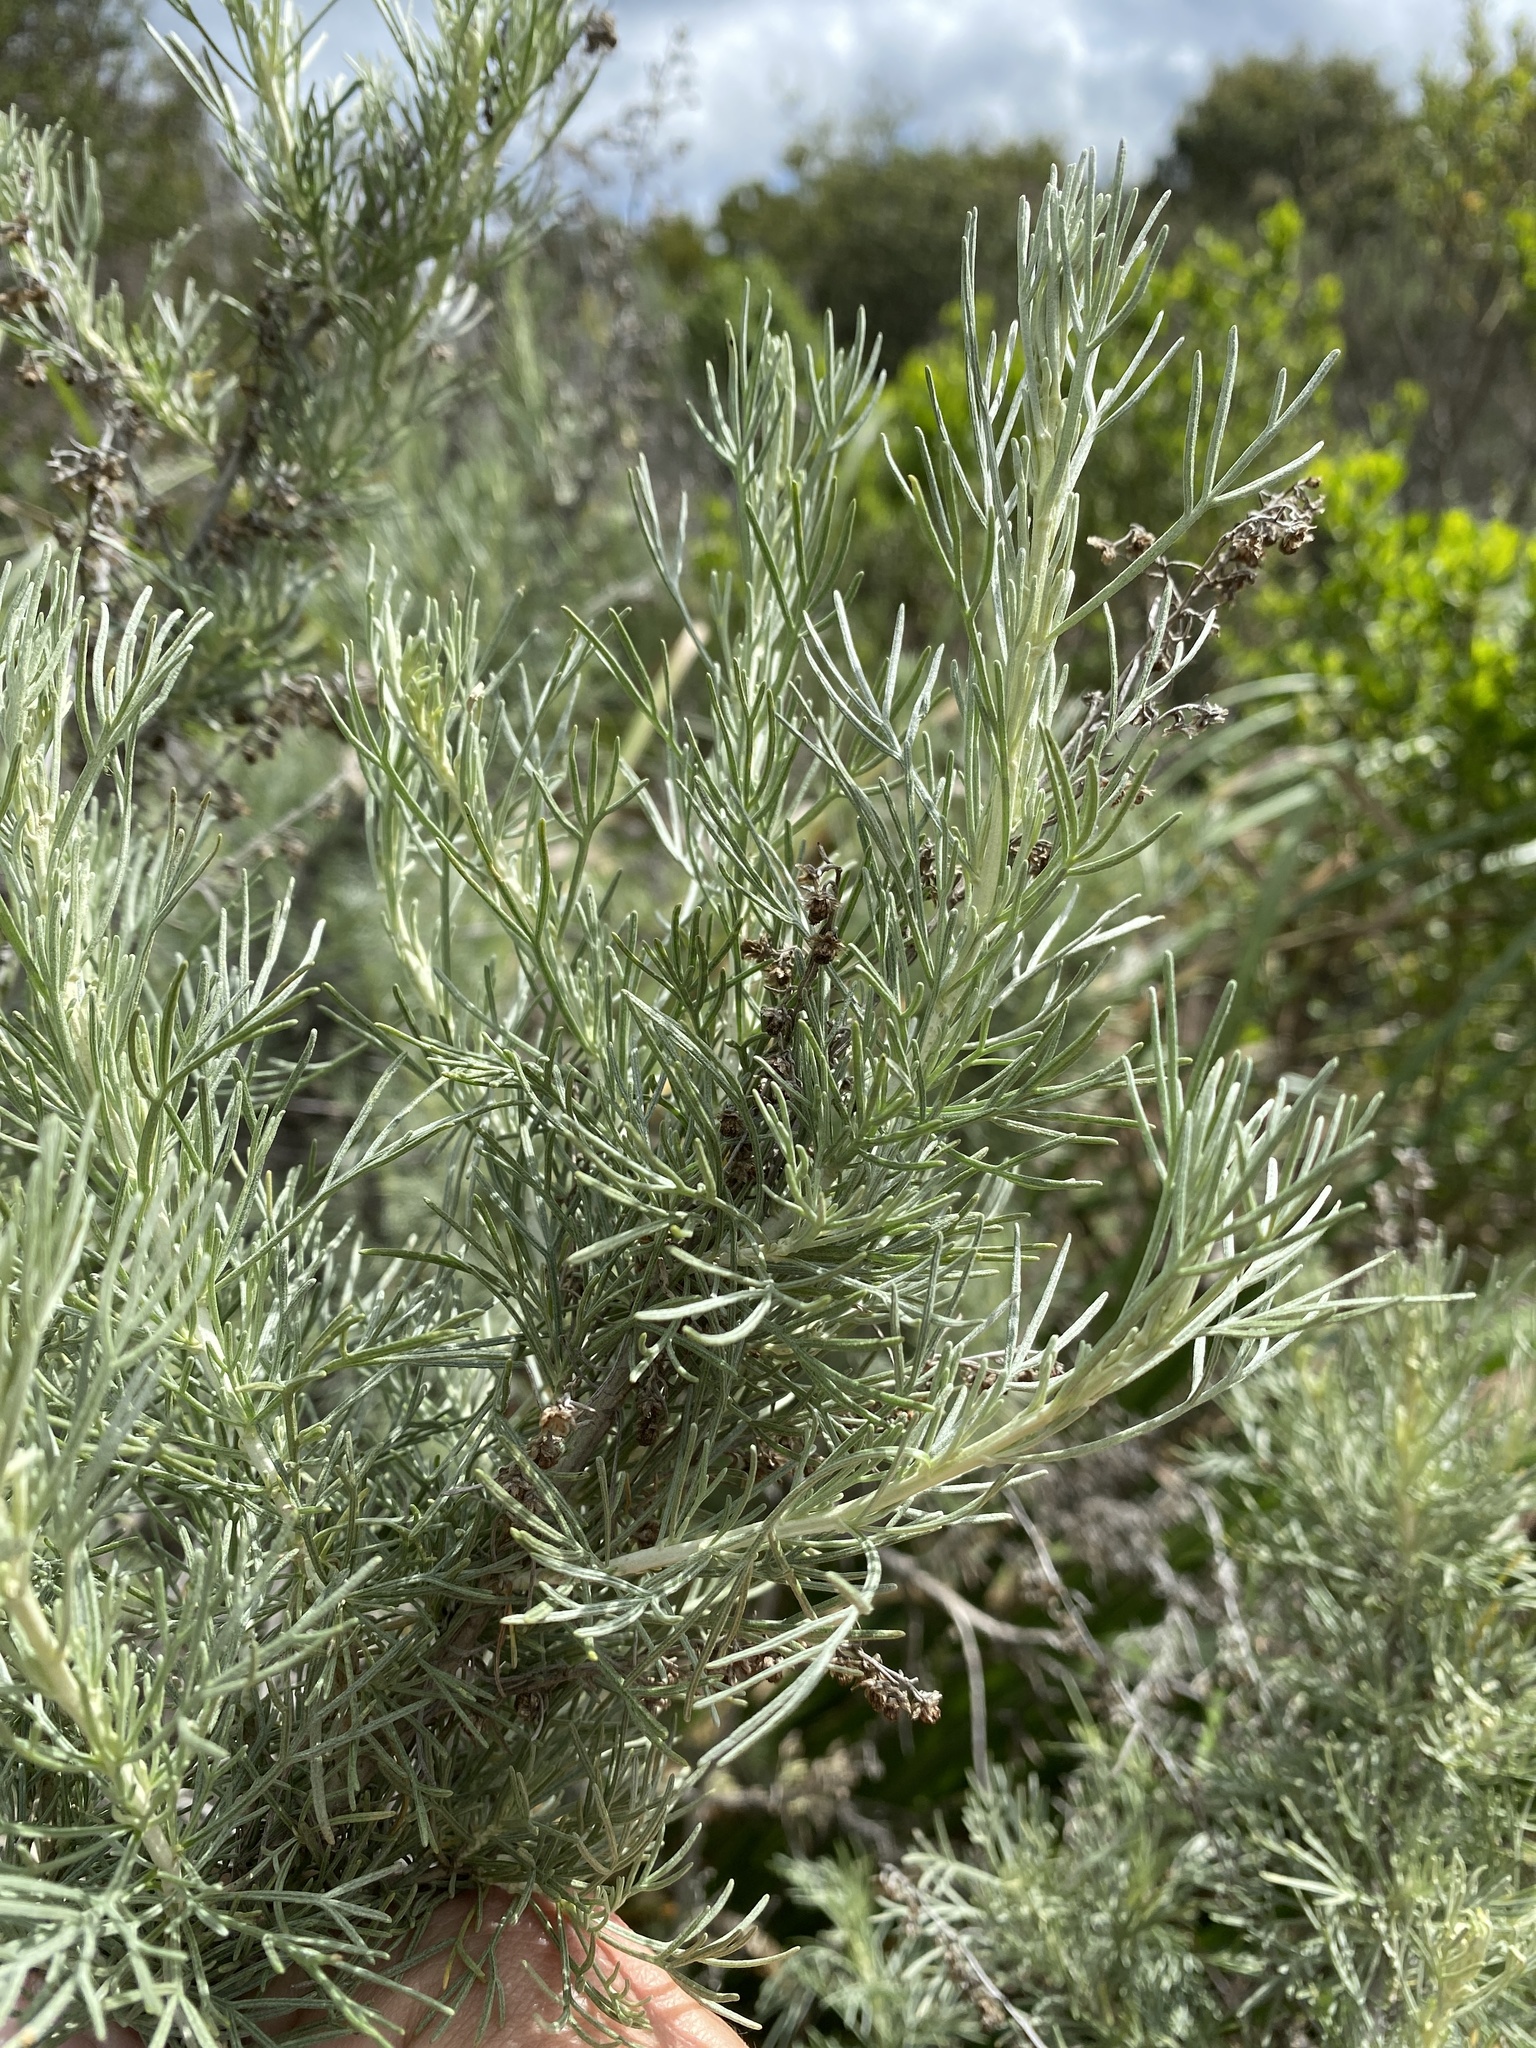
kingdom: Plantae
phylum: Tracheophyta
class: Magnoliopsida
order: Asterales
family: Asteraceae
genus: Artemisia
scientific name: Artemisia californica
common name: California sagebrush
